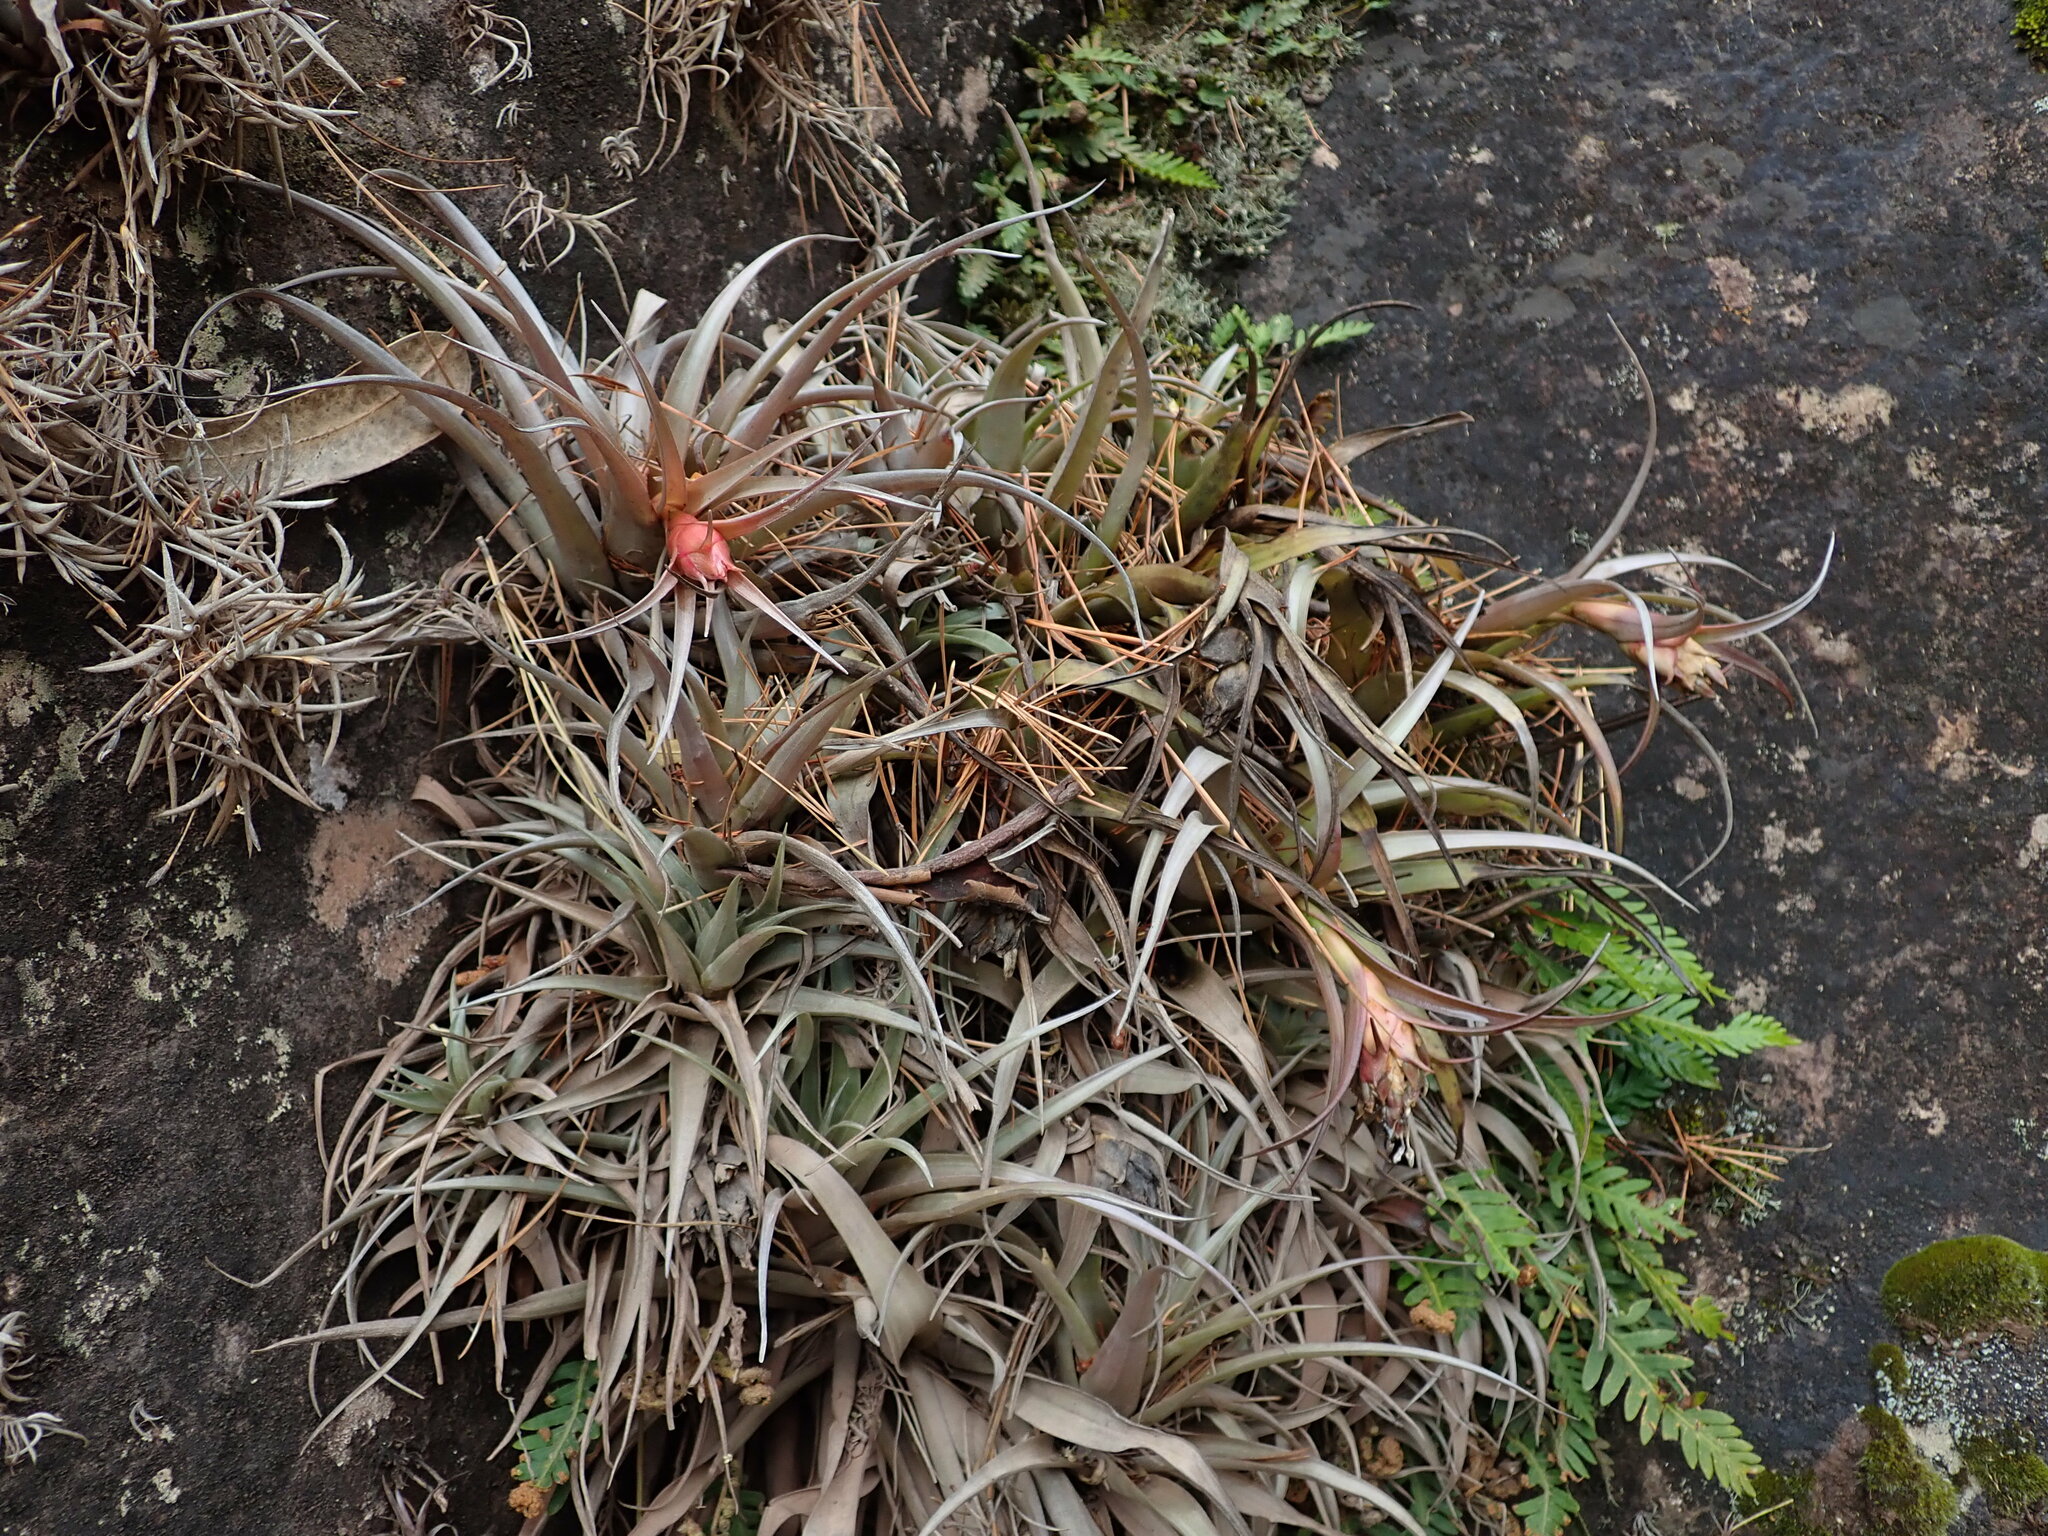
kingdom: Plantae
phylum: Tracheophyta
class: Liliopsida
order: Poales
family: Bromeliaceae
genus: Tillandsia
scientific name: Tillandsia sphaerocephala
